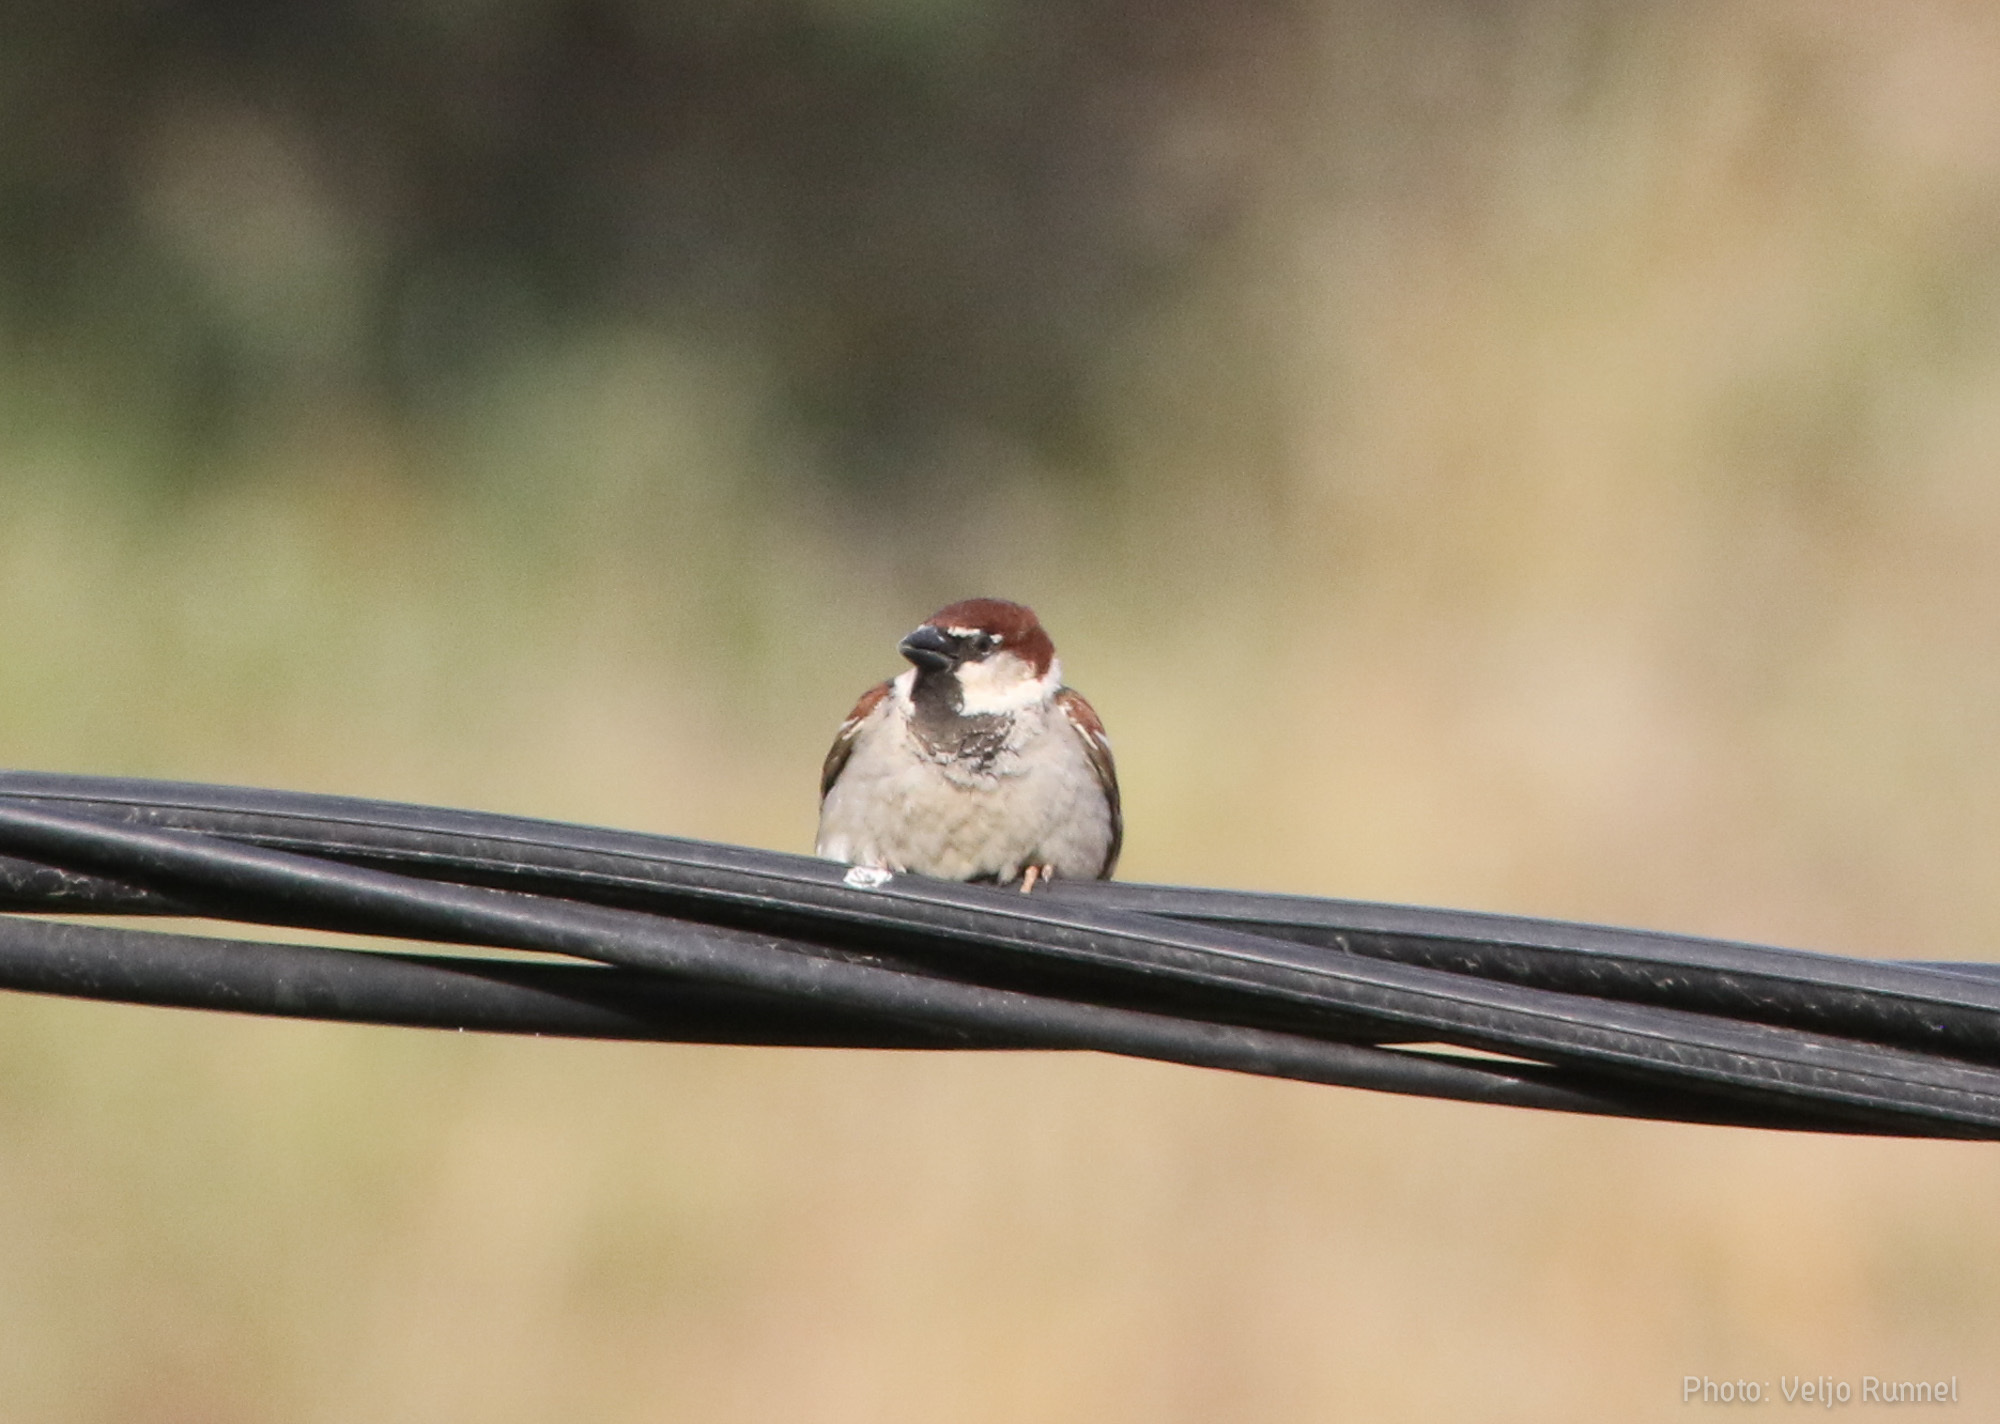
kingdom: Animalia
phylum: Chordata
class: Aves
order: Passeriformes
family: Passeridae
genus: Passer
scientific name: Passer italiae
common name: Italian sparrow
